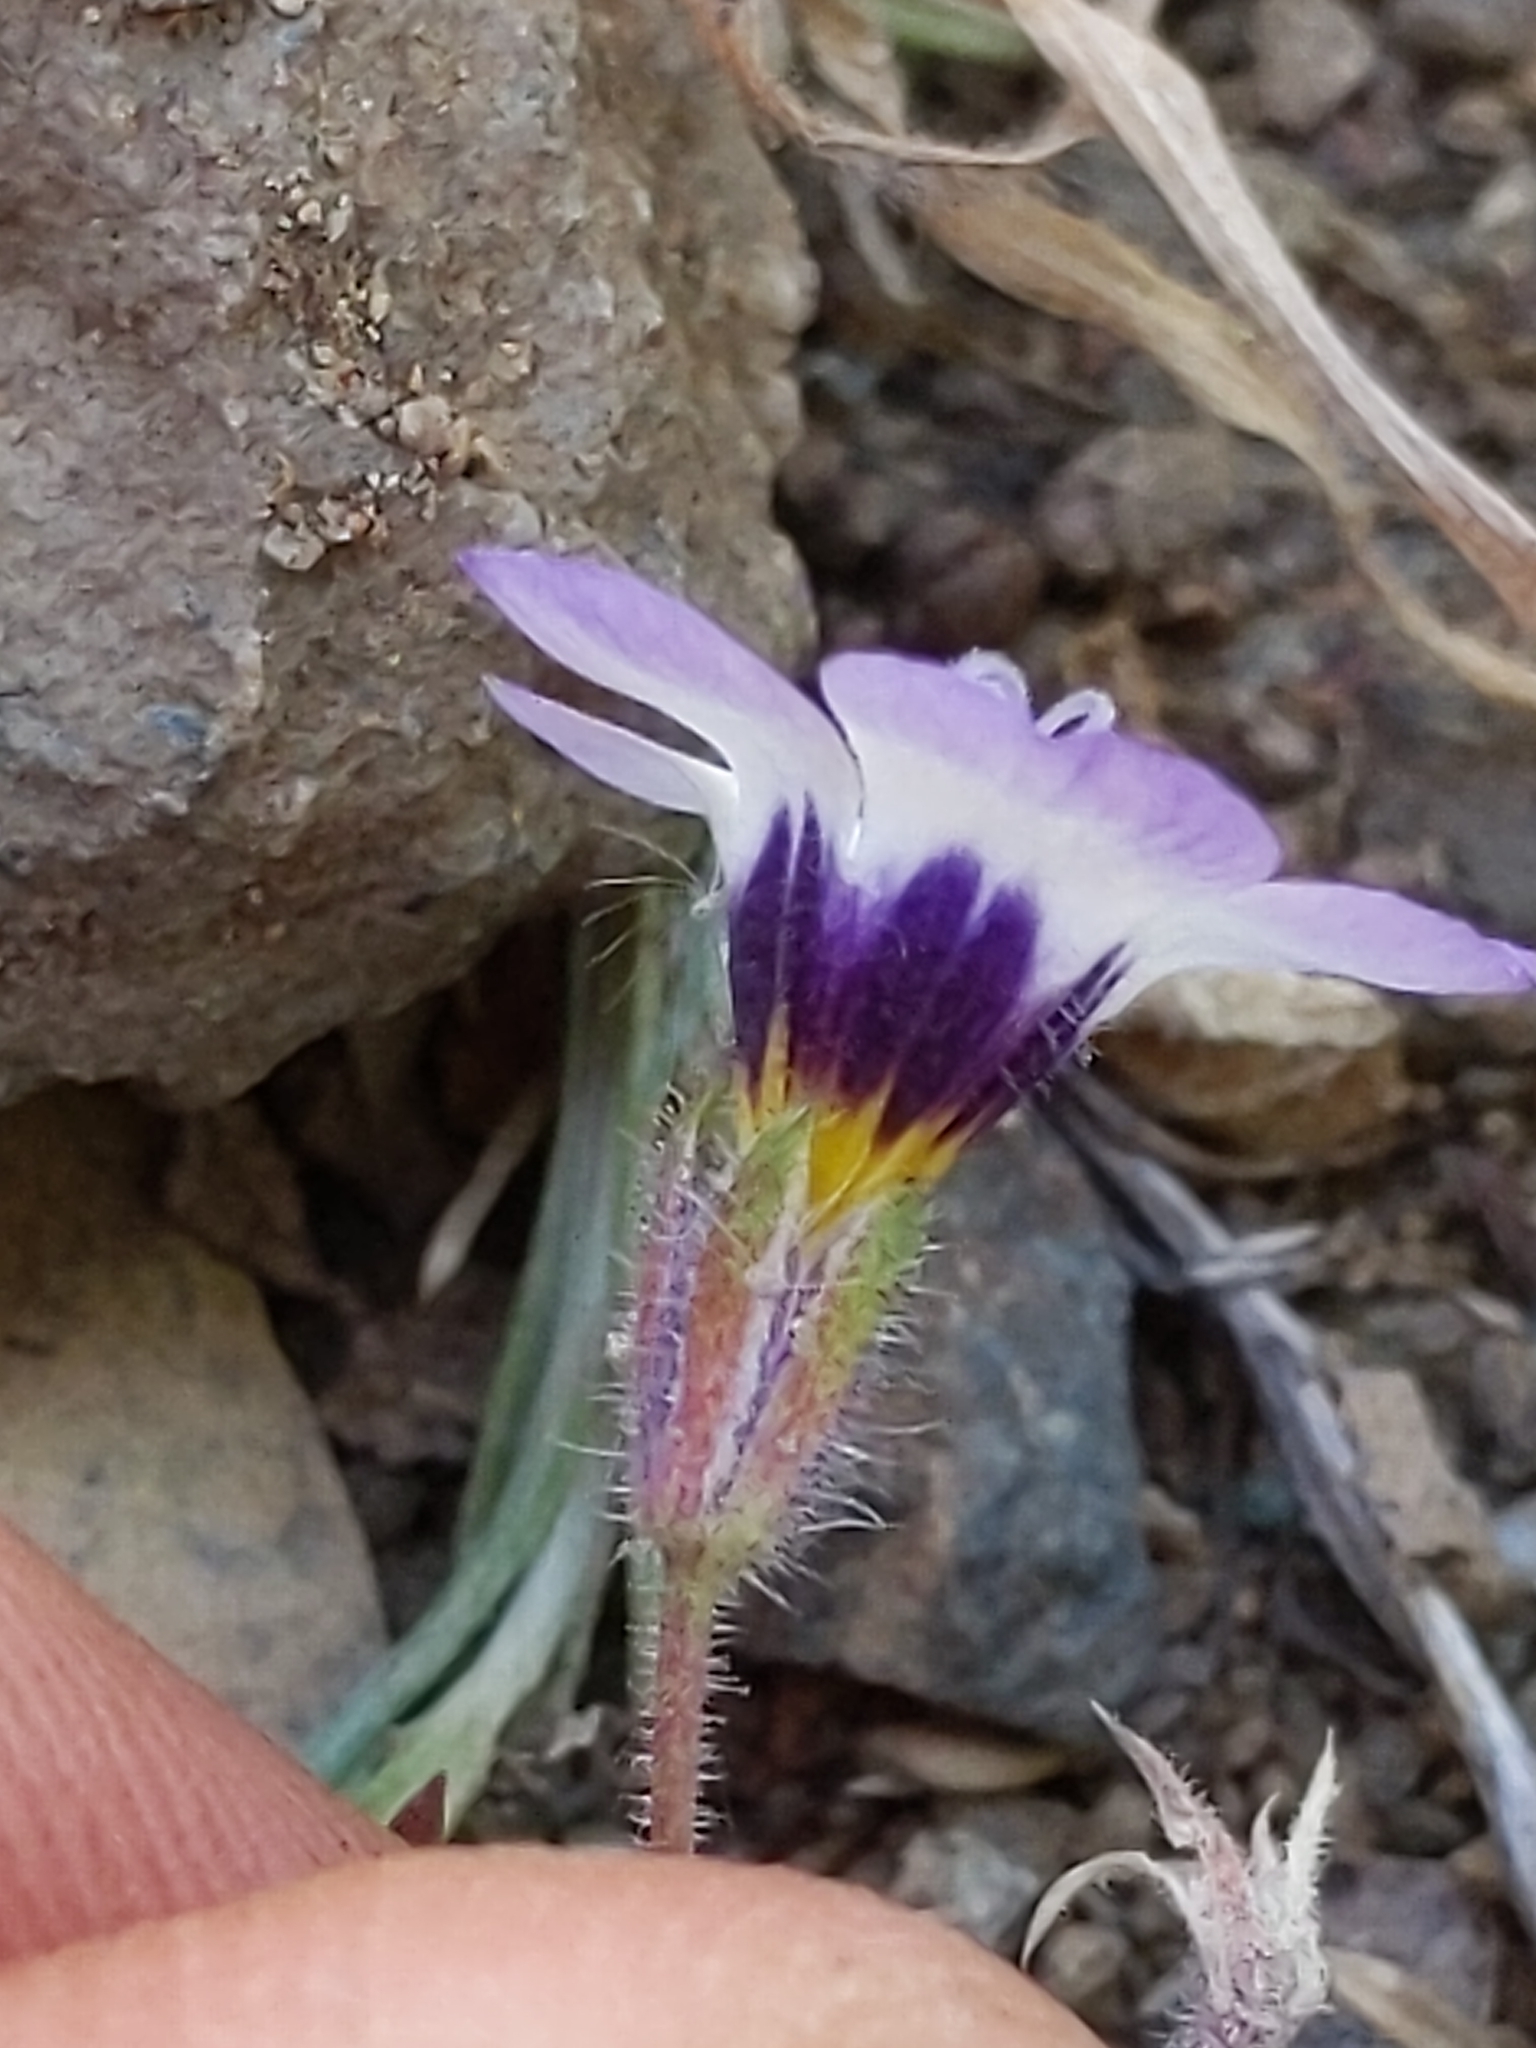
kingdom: Plantae
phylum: Tracheophyta
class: Magnoliopsida
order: Ericales
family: Polemoniaceae
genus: Gilia
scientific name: Gilia tricolor
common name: Bird's-eyes
